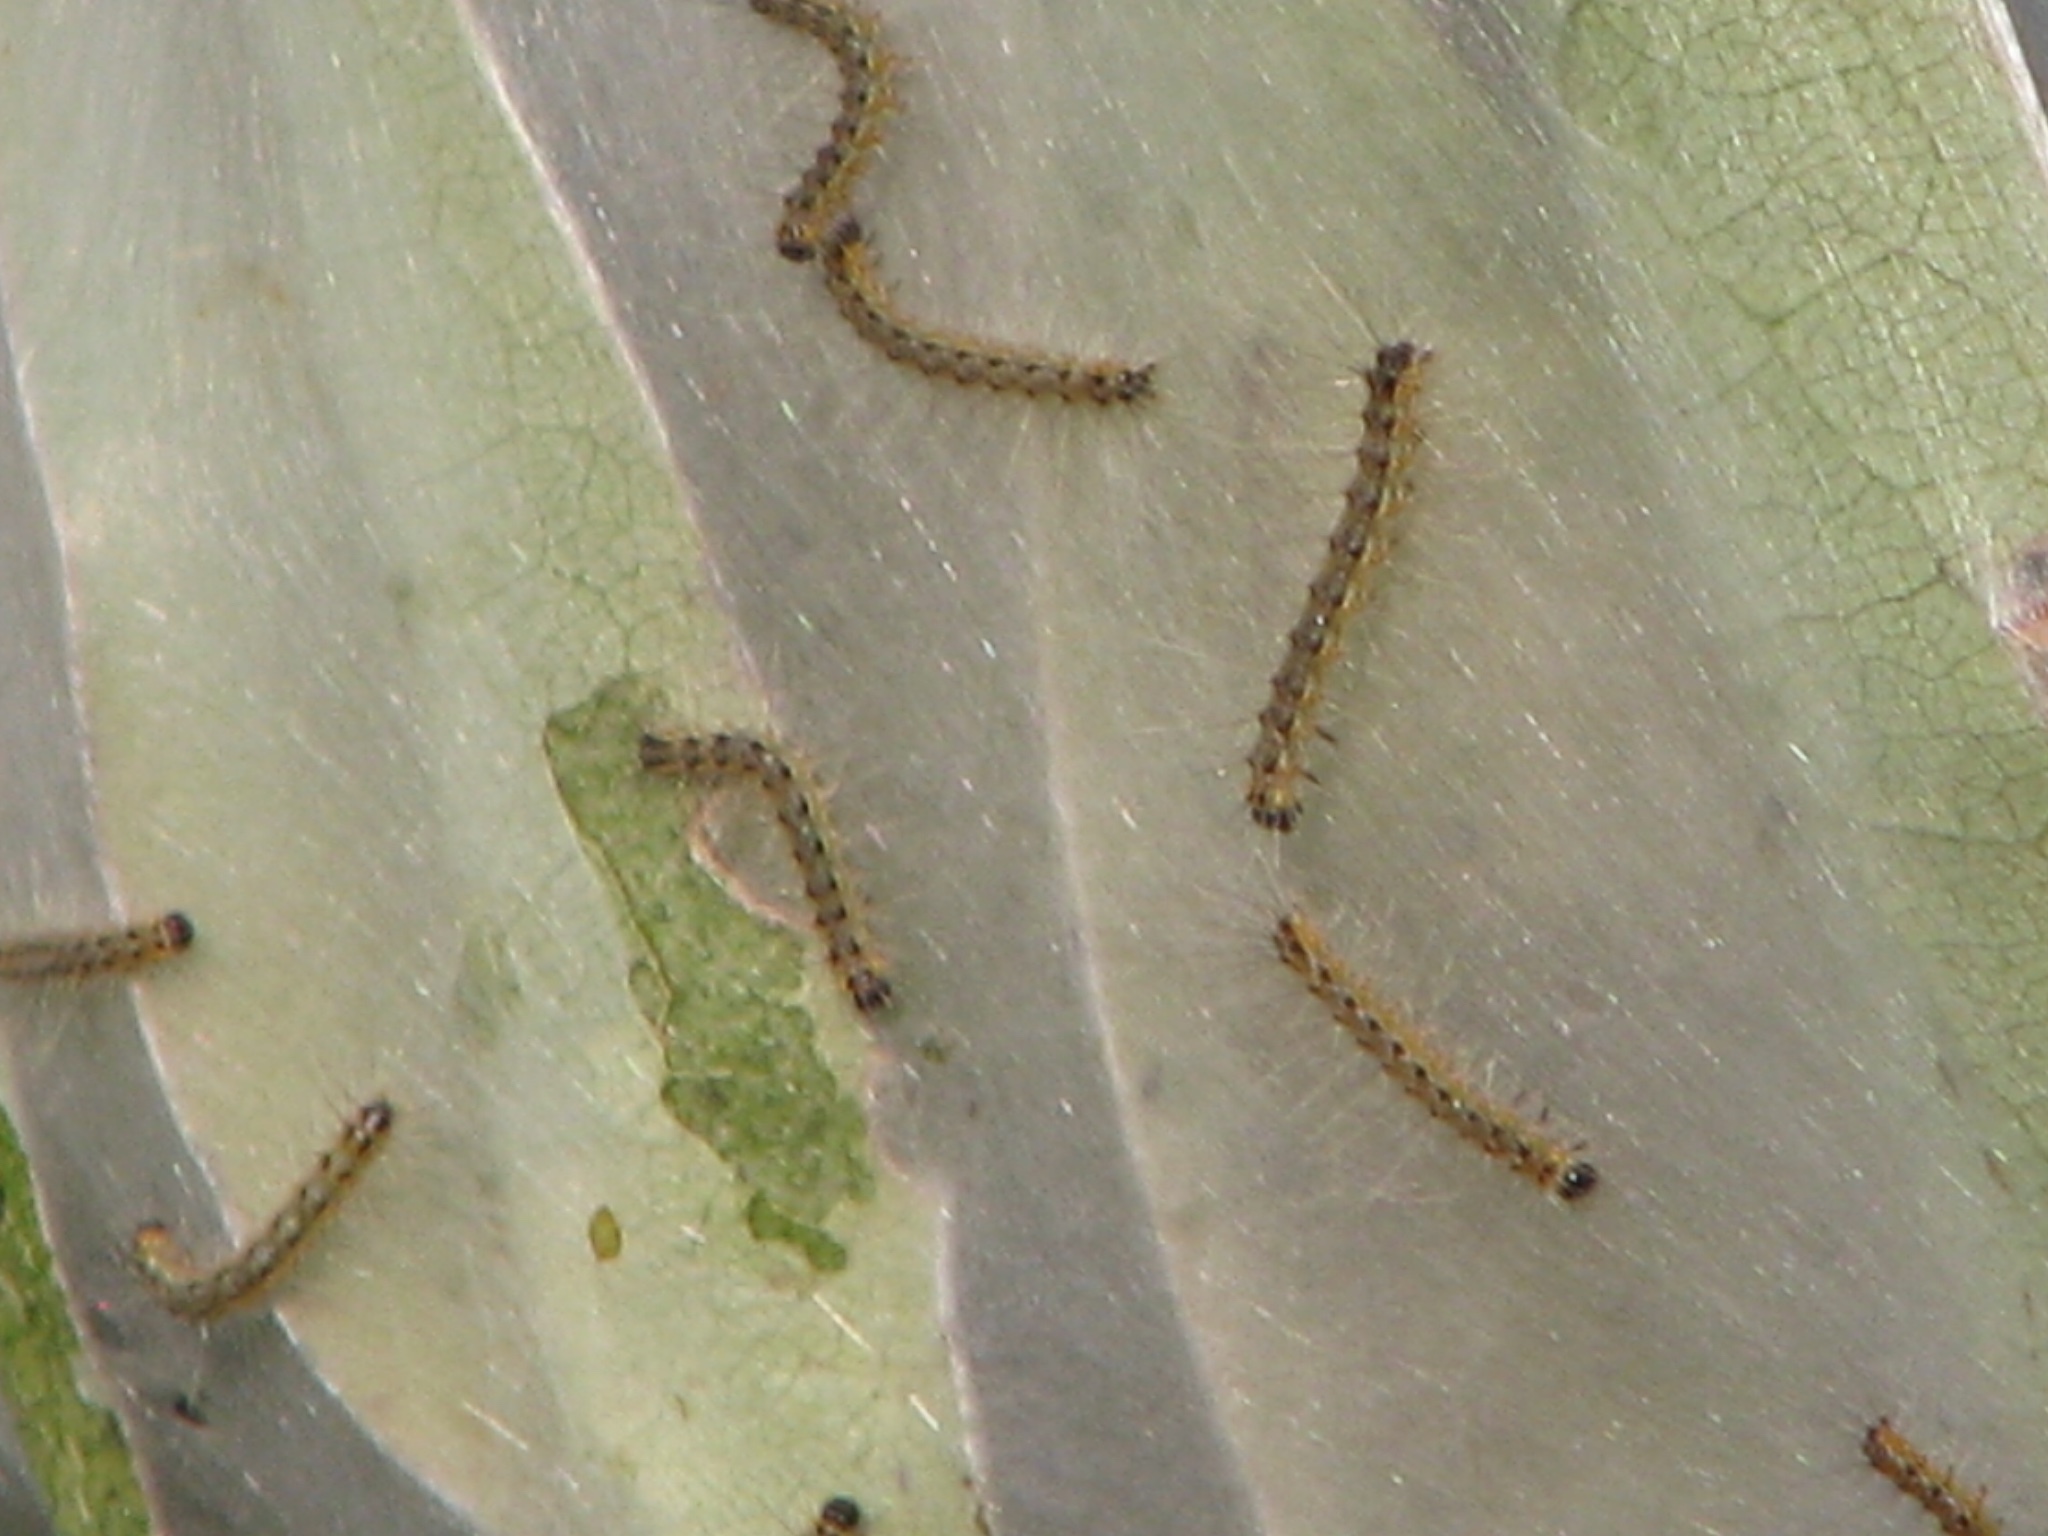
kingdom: Animalia
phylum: Arthropoda
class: Insecta
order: Lepidoptera
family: Erebidae
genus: Hyphantria
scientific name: Hyphantria cunea
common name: American white moth
